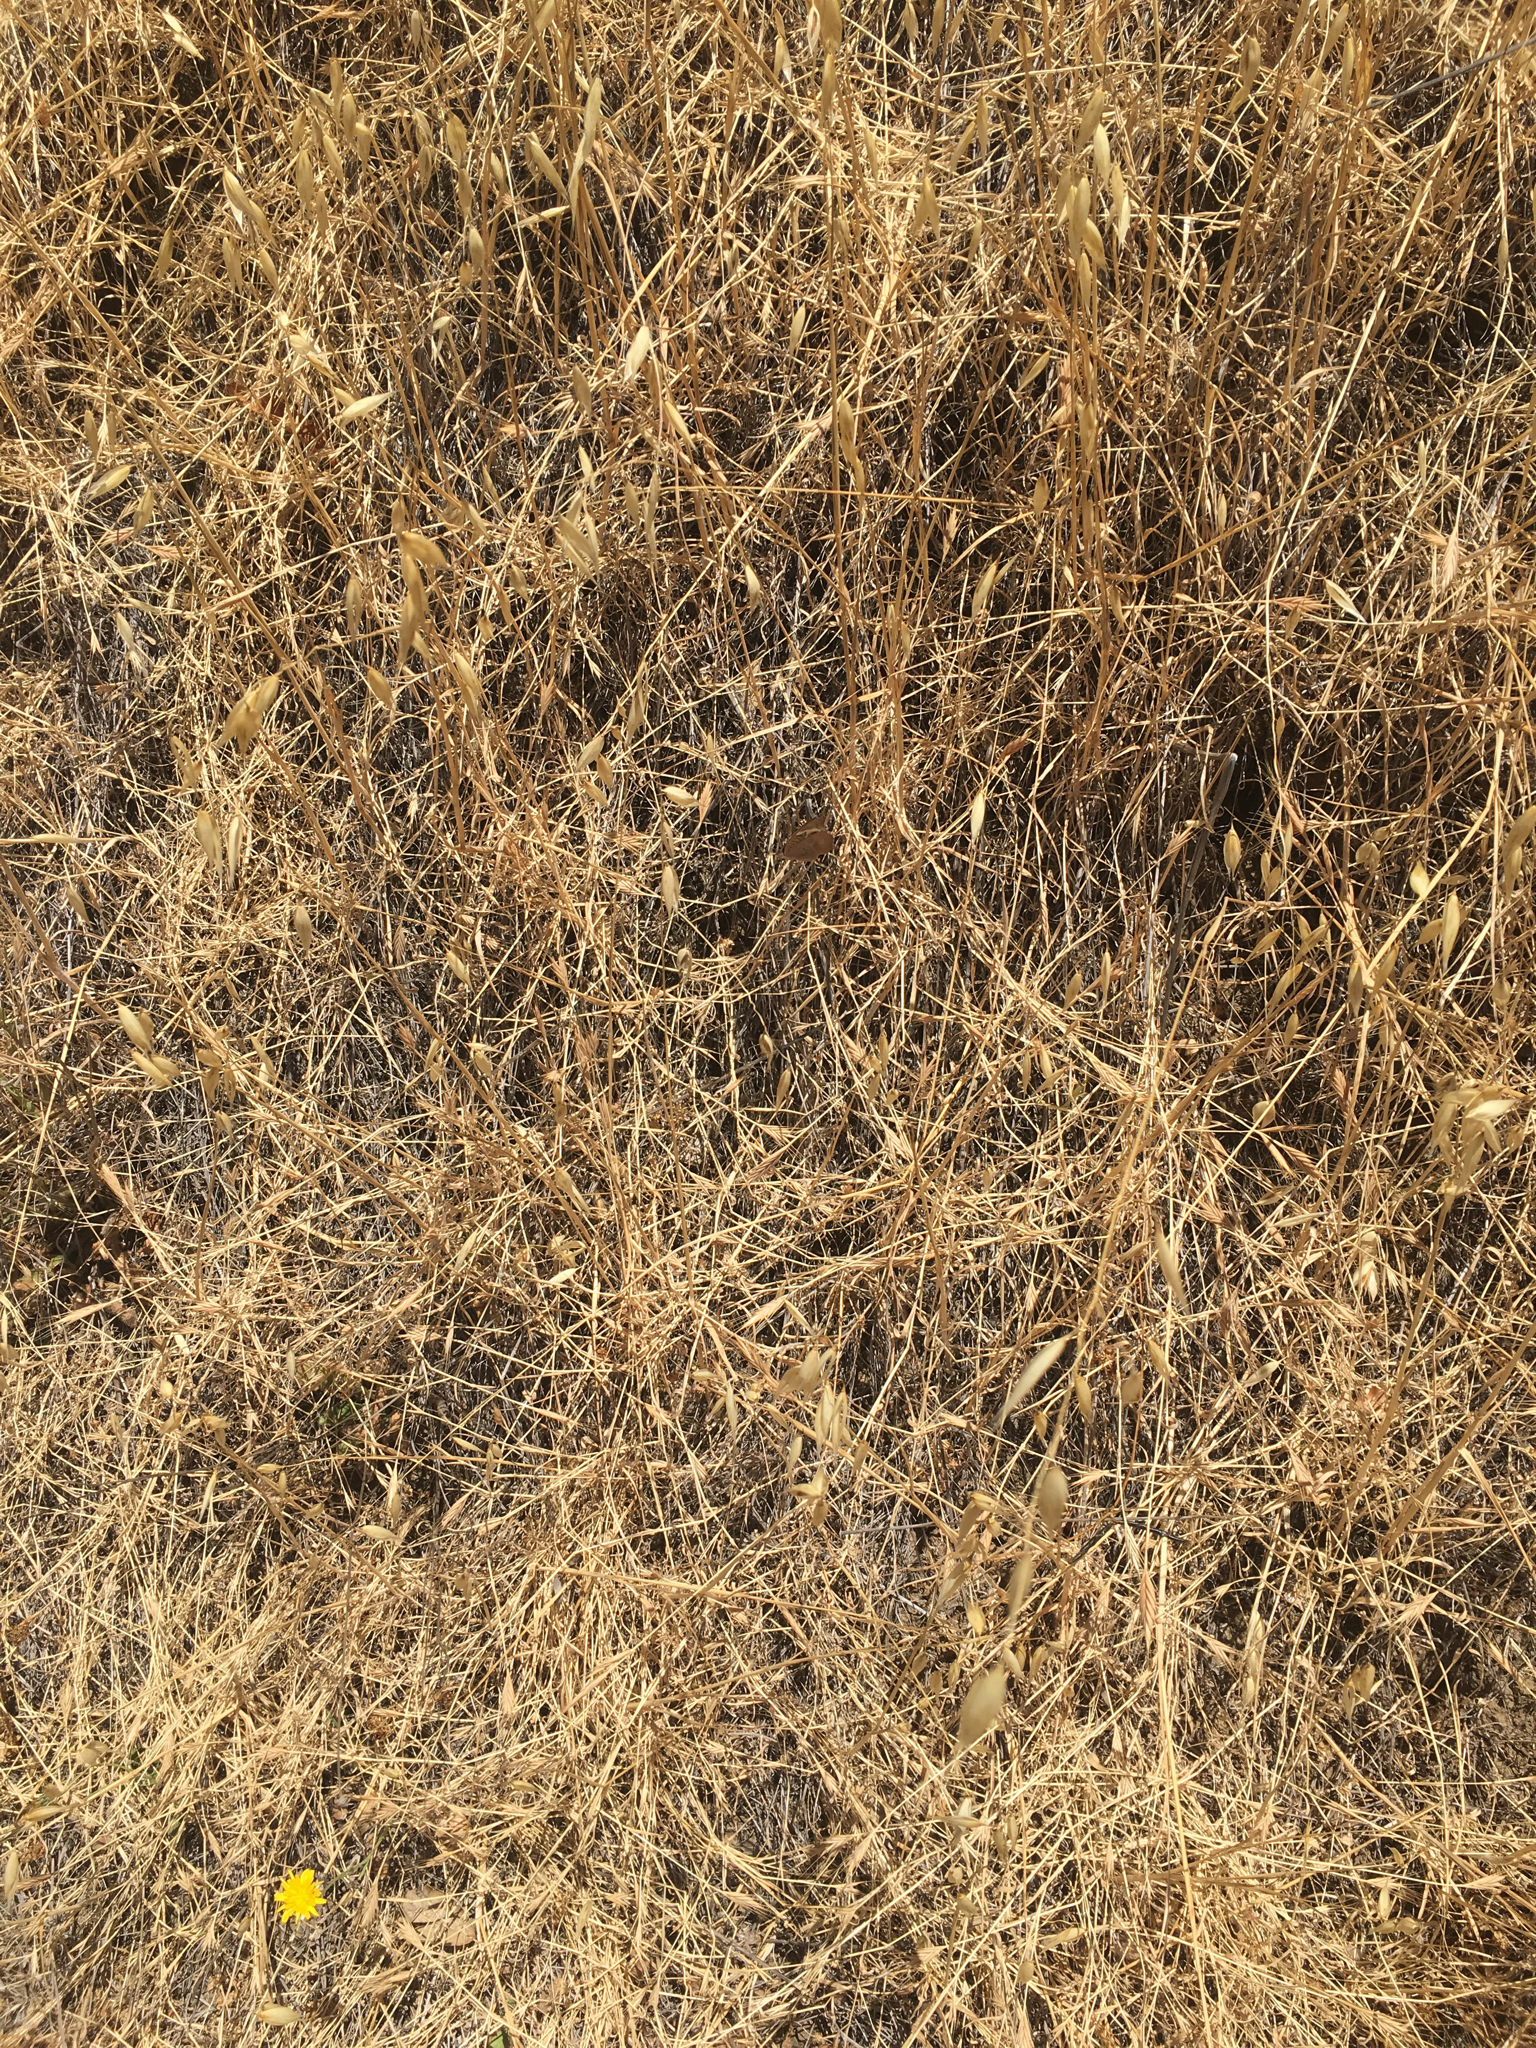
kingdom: Animalia
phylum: Arthropoda
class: Insecta
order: Lepidoptera
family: Nymphalidae
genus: Junonia
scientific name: Junonia grisea
